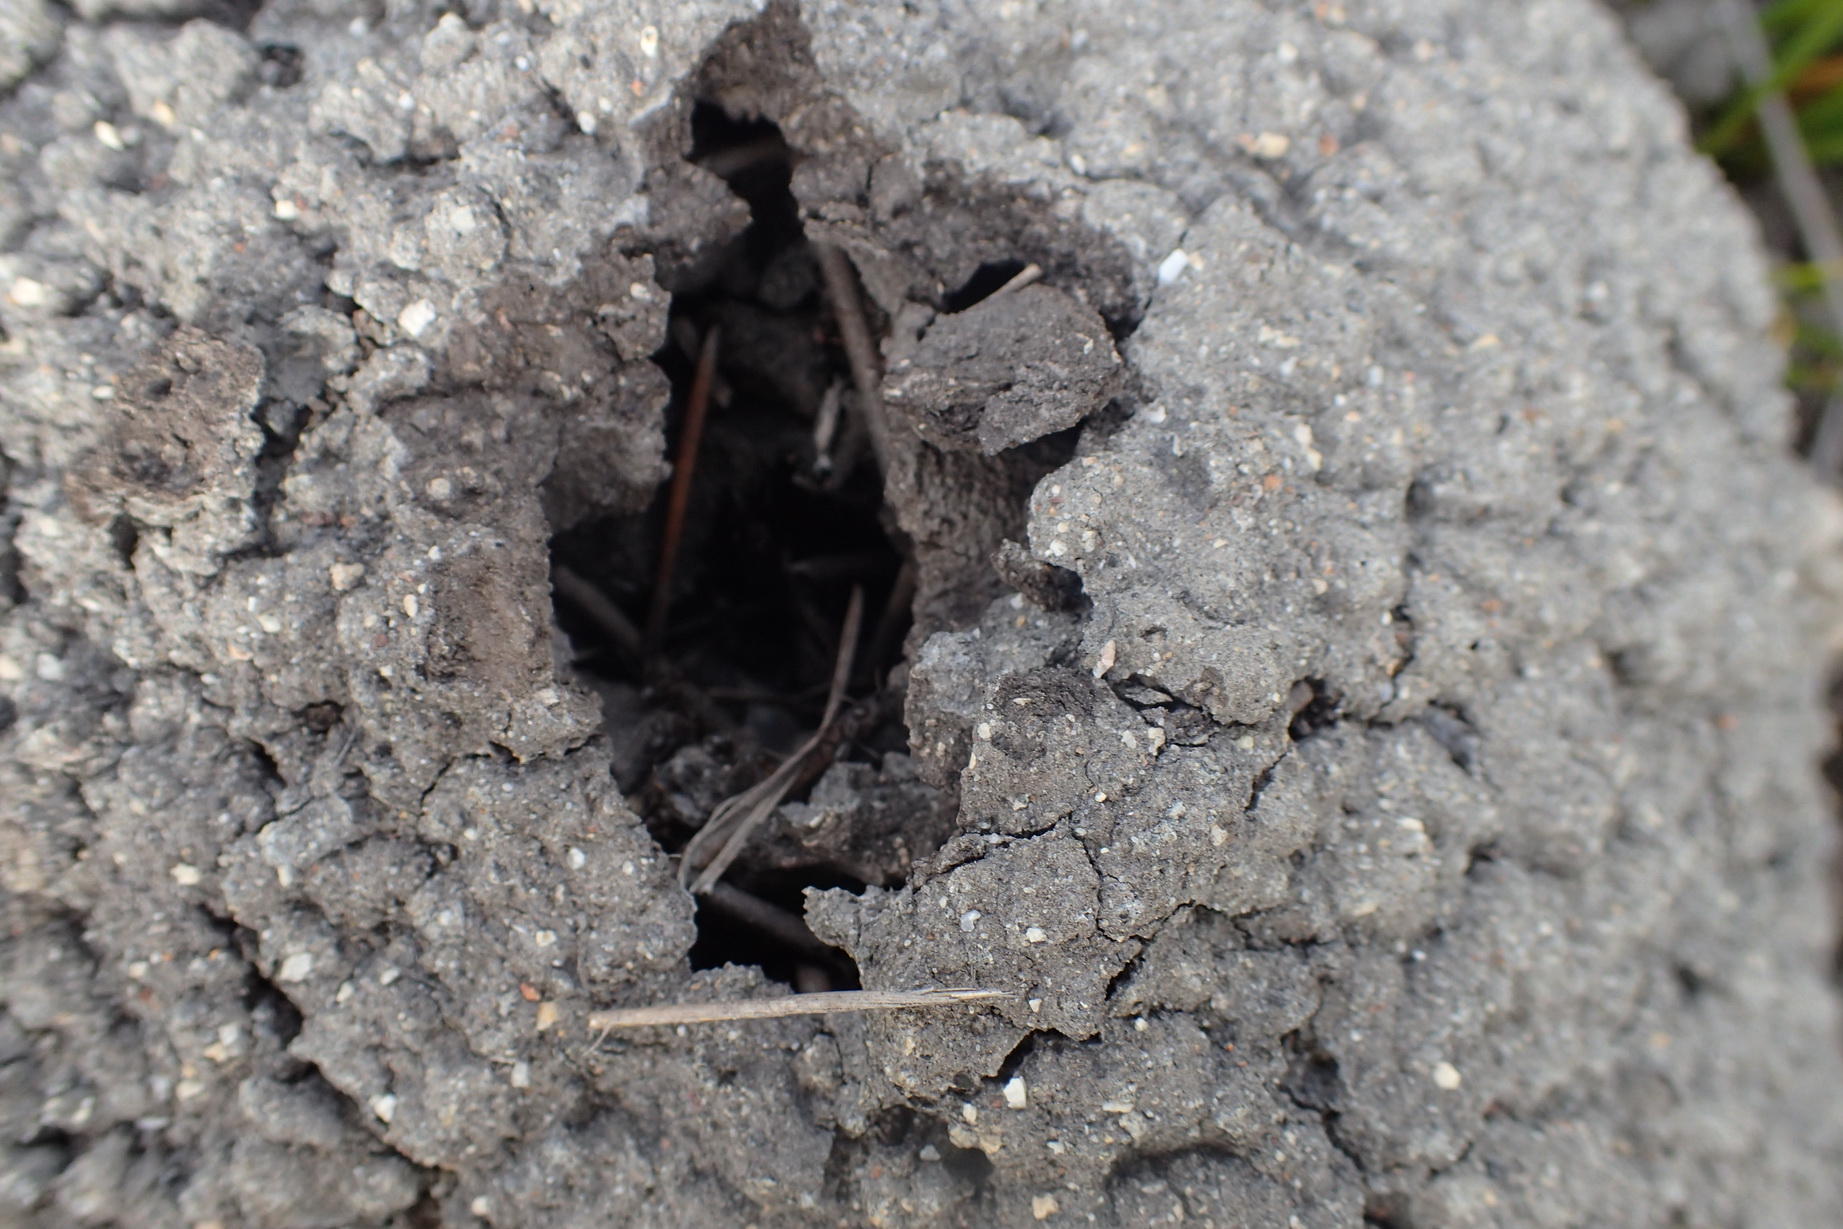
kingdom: Animalia
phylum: Arthropoda
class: Insecta
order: Blattodea
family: Termitidae
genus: Amitermes
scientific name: Amitermes hastatus
